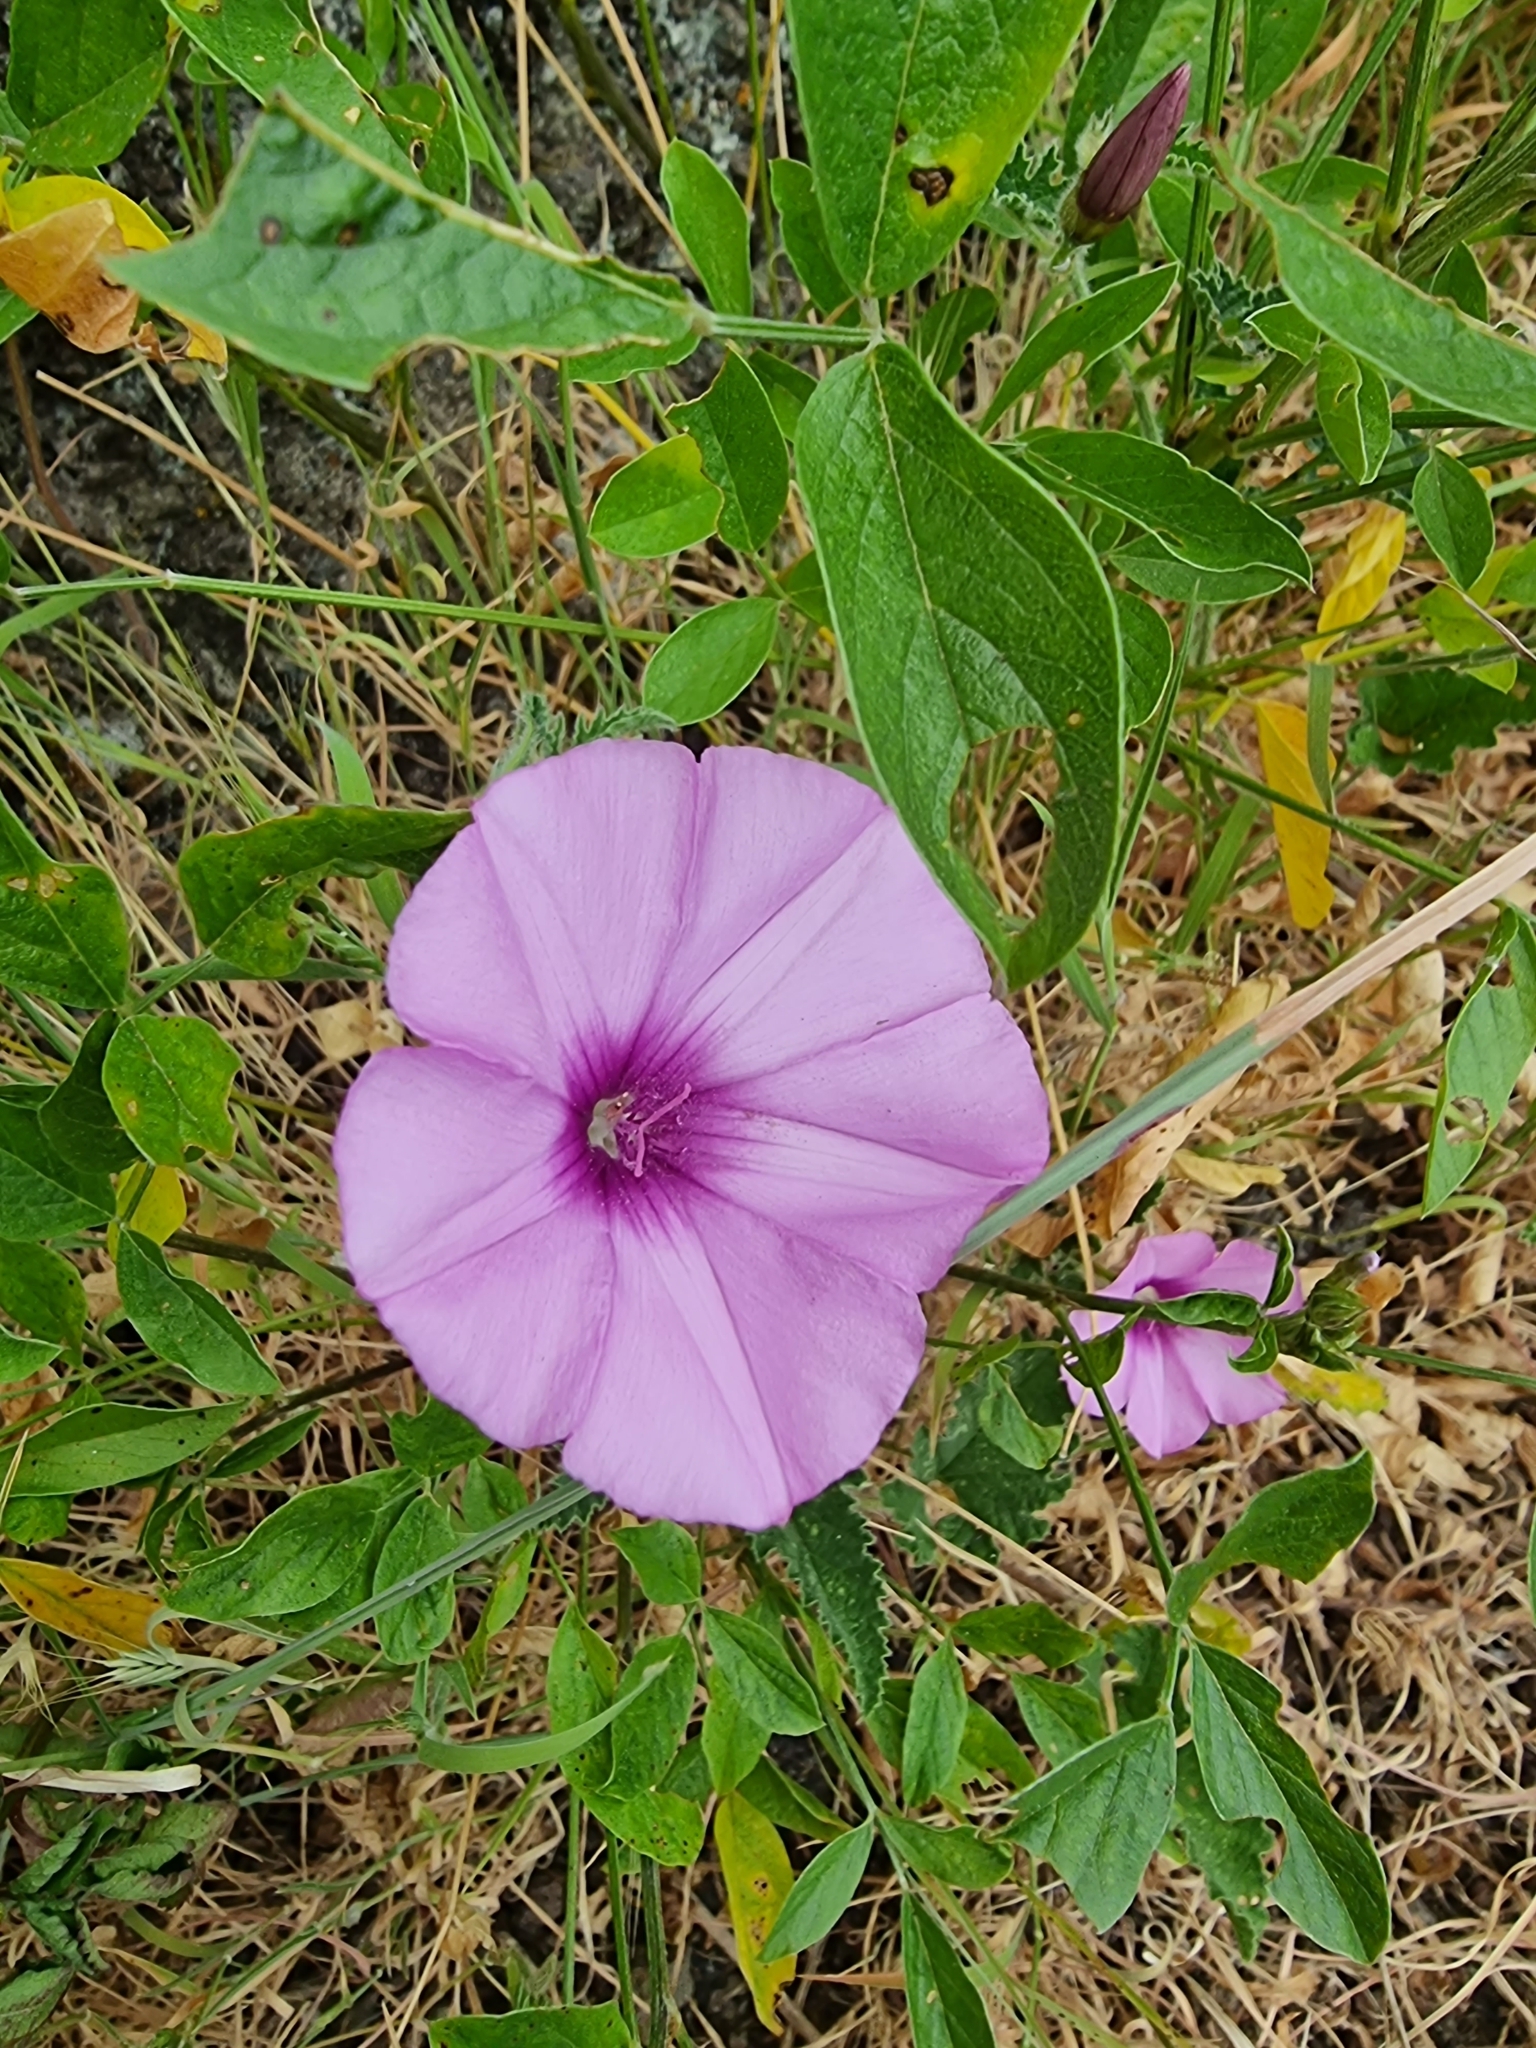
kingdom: Plantae
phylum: Tracheophyta
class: Magnoliopsida
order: Solanales
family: Convolvulaceae
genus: Convolvulus
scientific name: Convolvulus althaeoides
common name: Mallow bindweed
